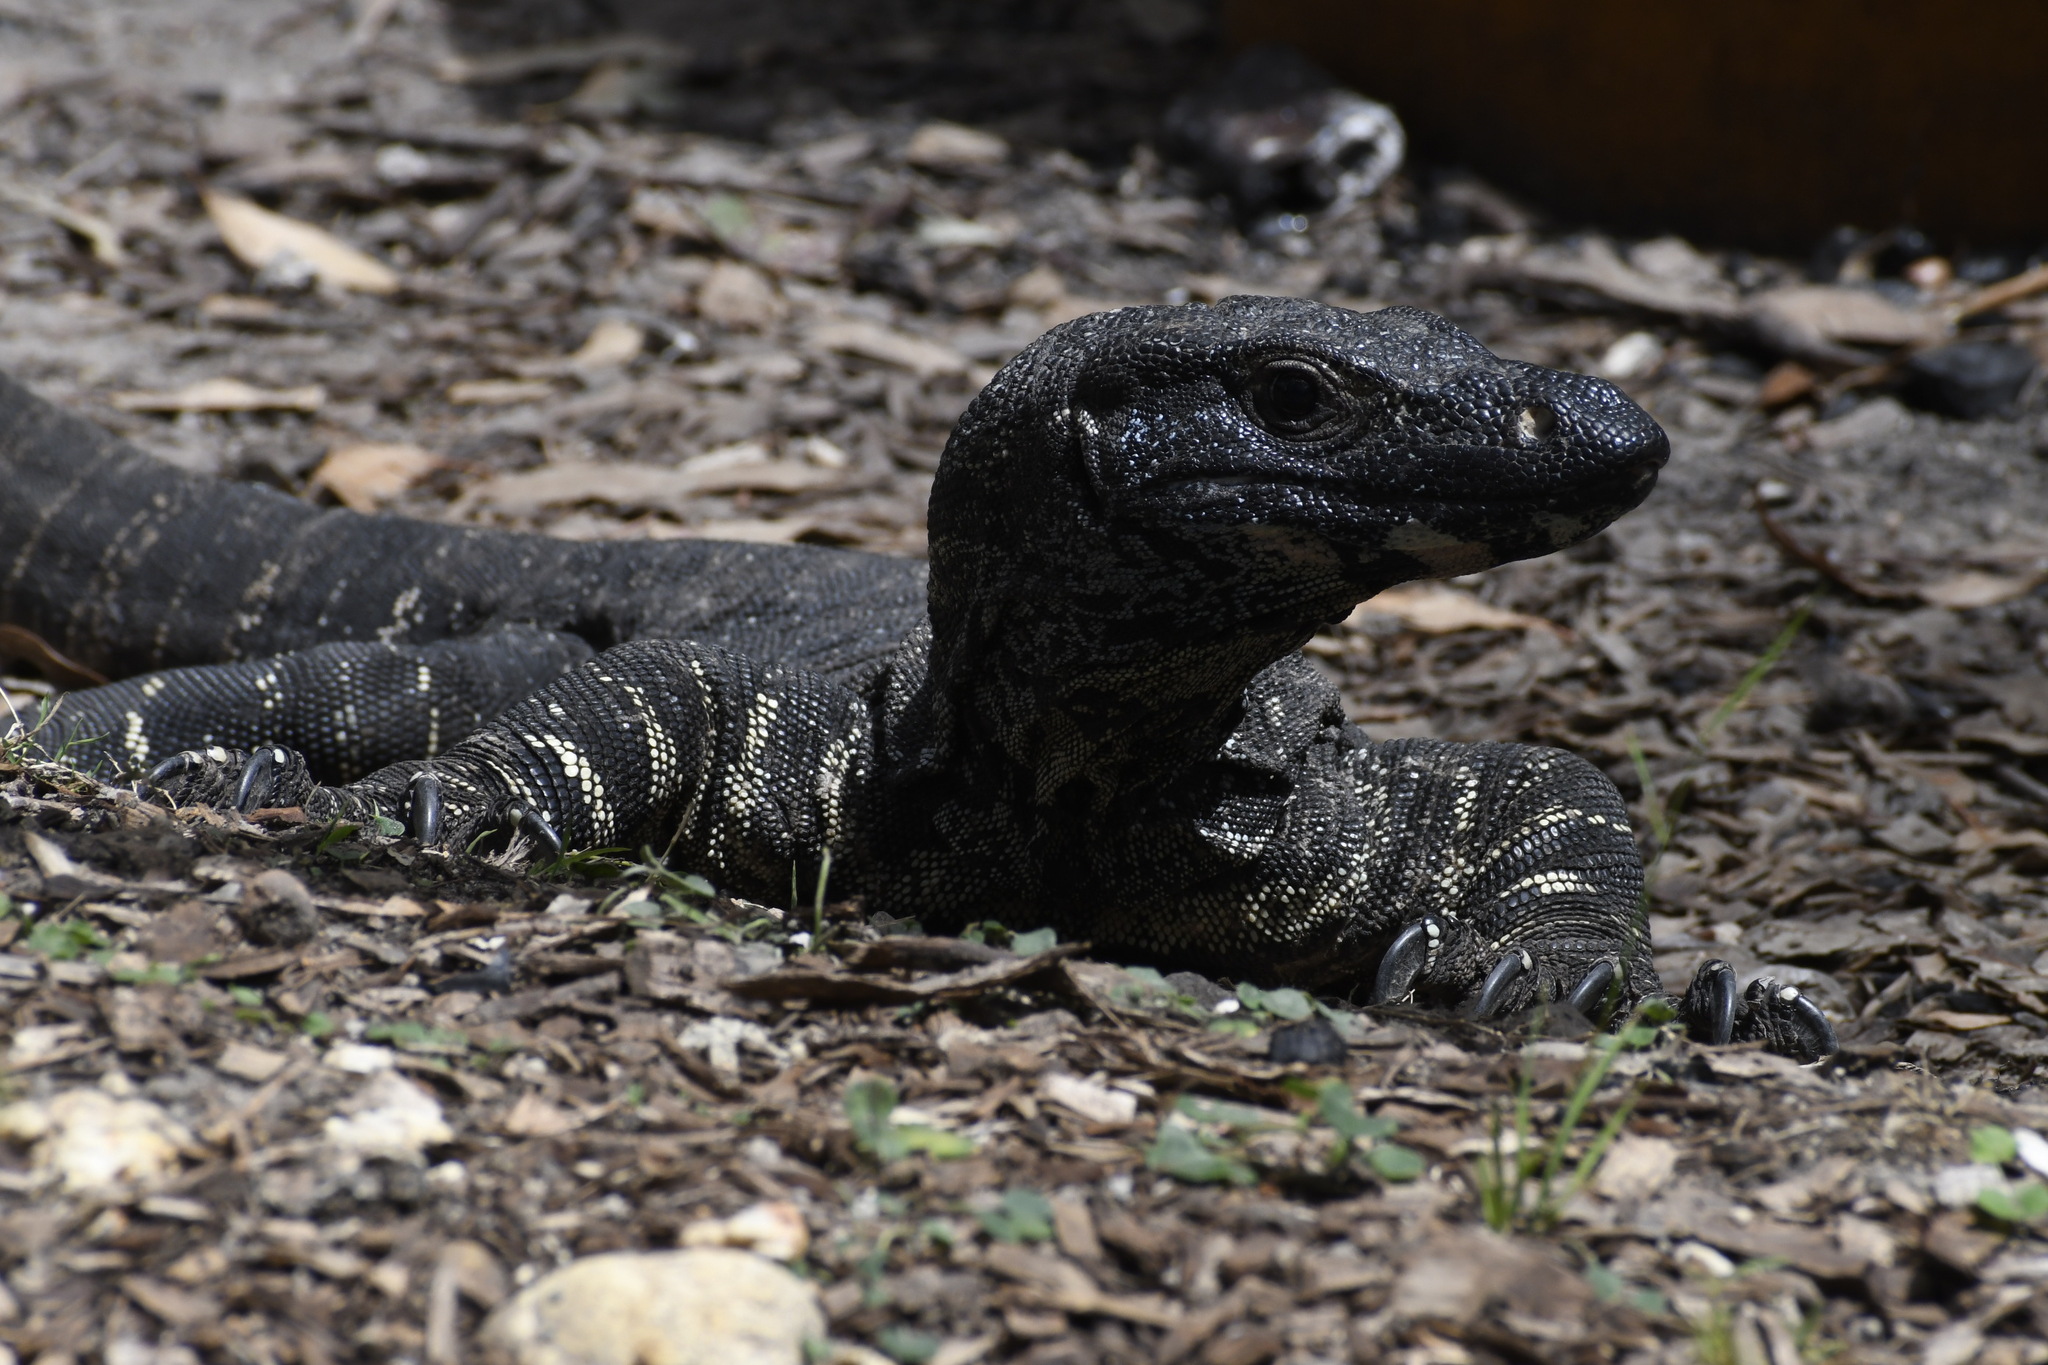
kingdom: Animalia
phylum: Chordata
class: Squamata
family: Varanidae
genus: Varanus
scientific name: Varanus varius
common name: Lace monitor
